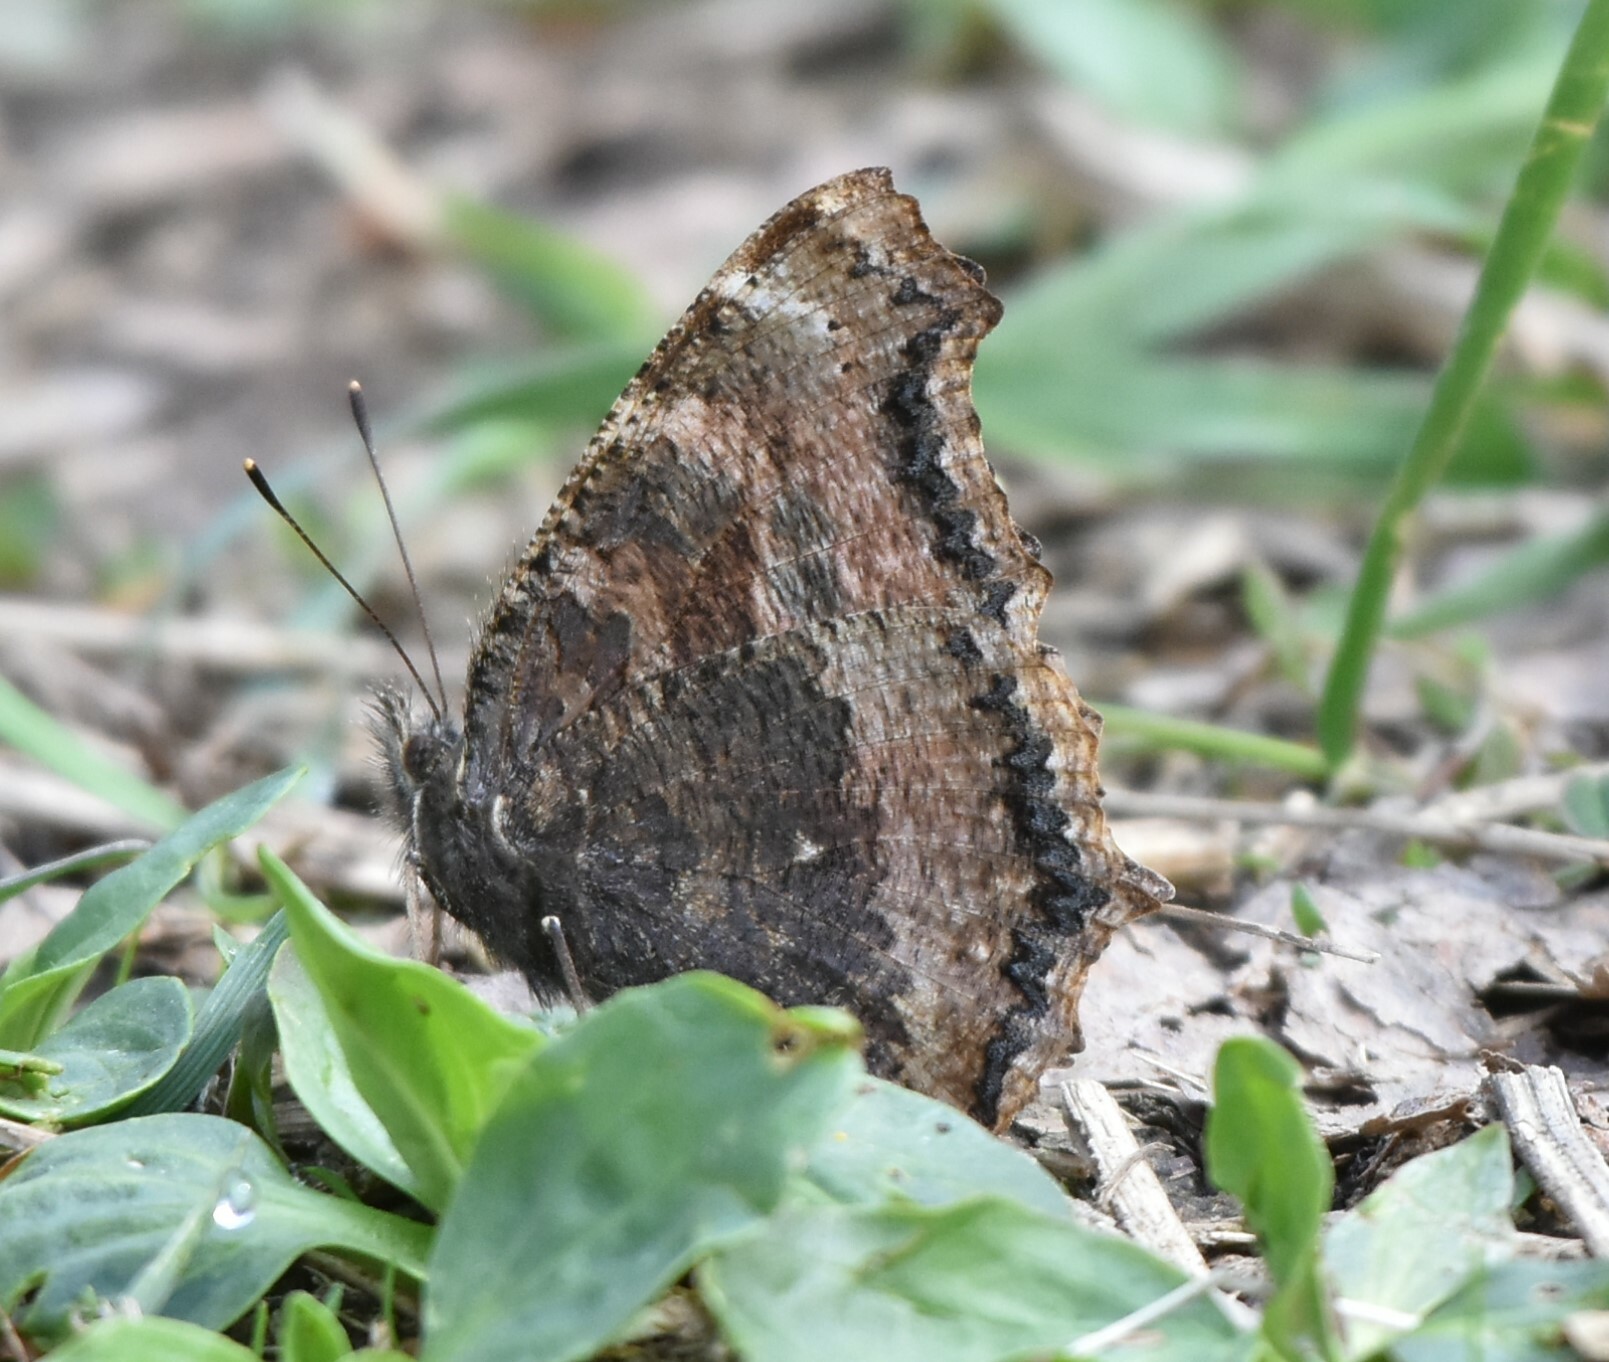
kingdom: Animalia
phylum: Arthropoda
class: Insecta
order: Lepidoptera
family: Nymphalidae
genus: Nymphalis
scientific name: Nymphalis xanthomelas
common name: Scarce tortoiseshell
